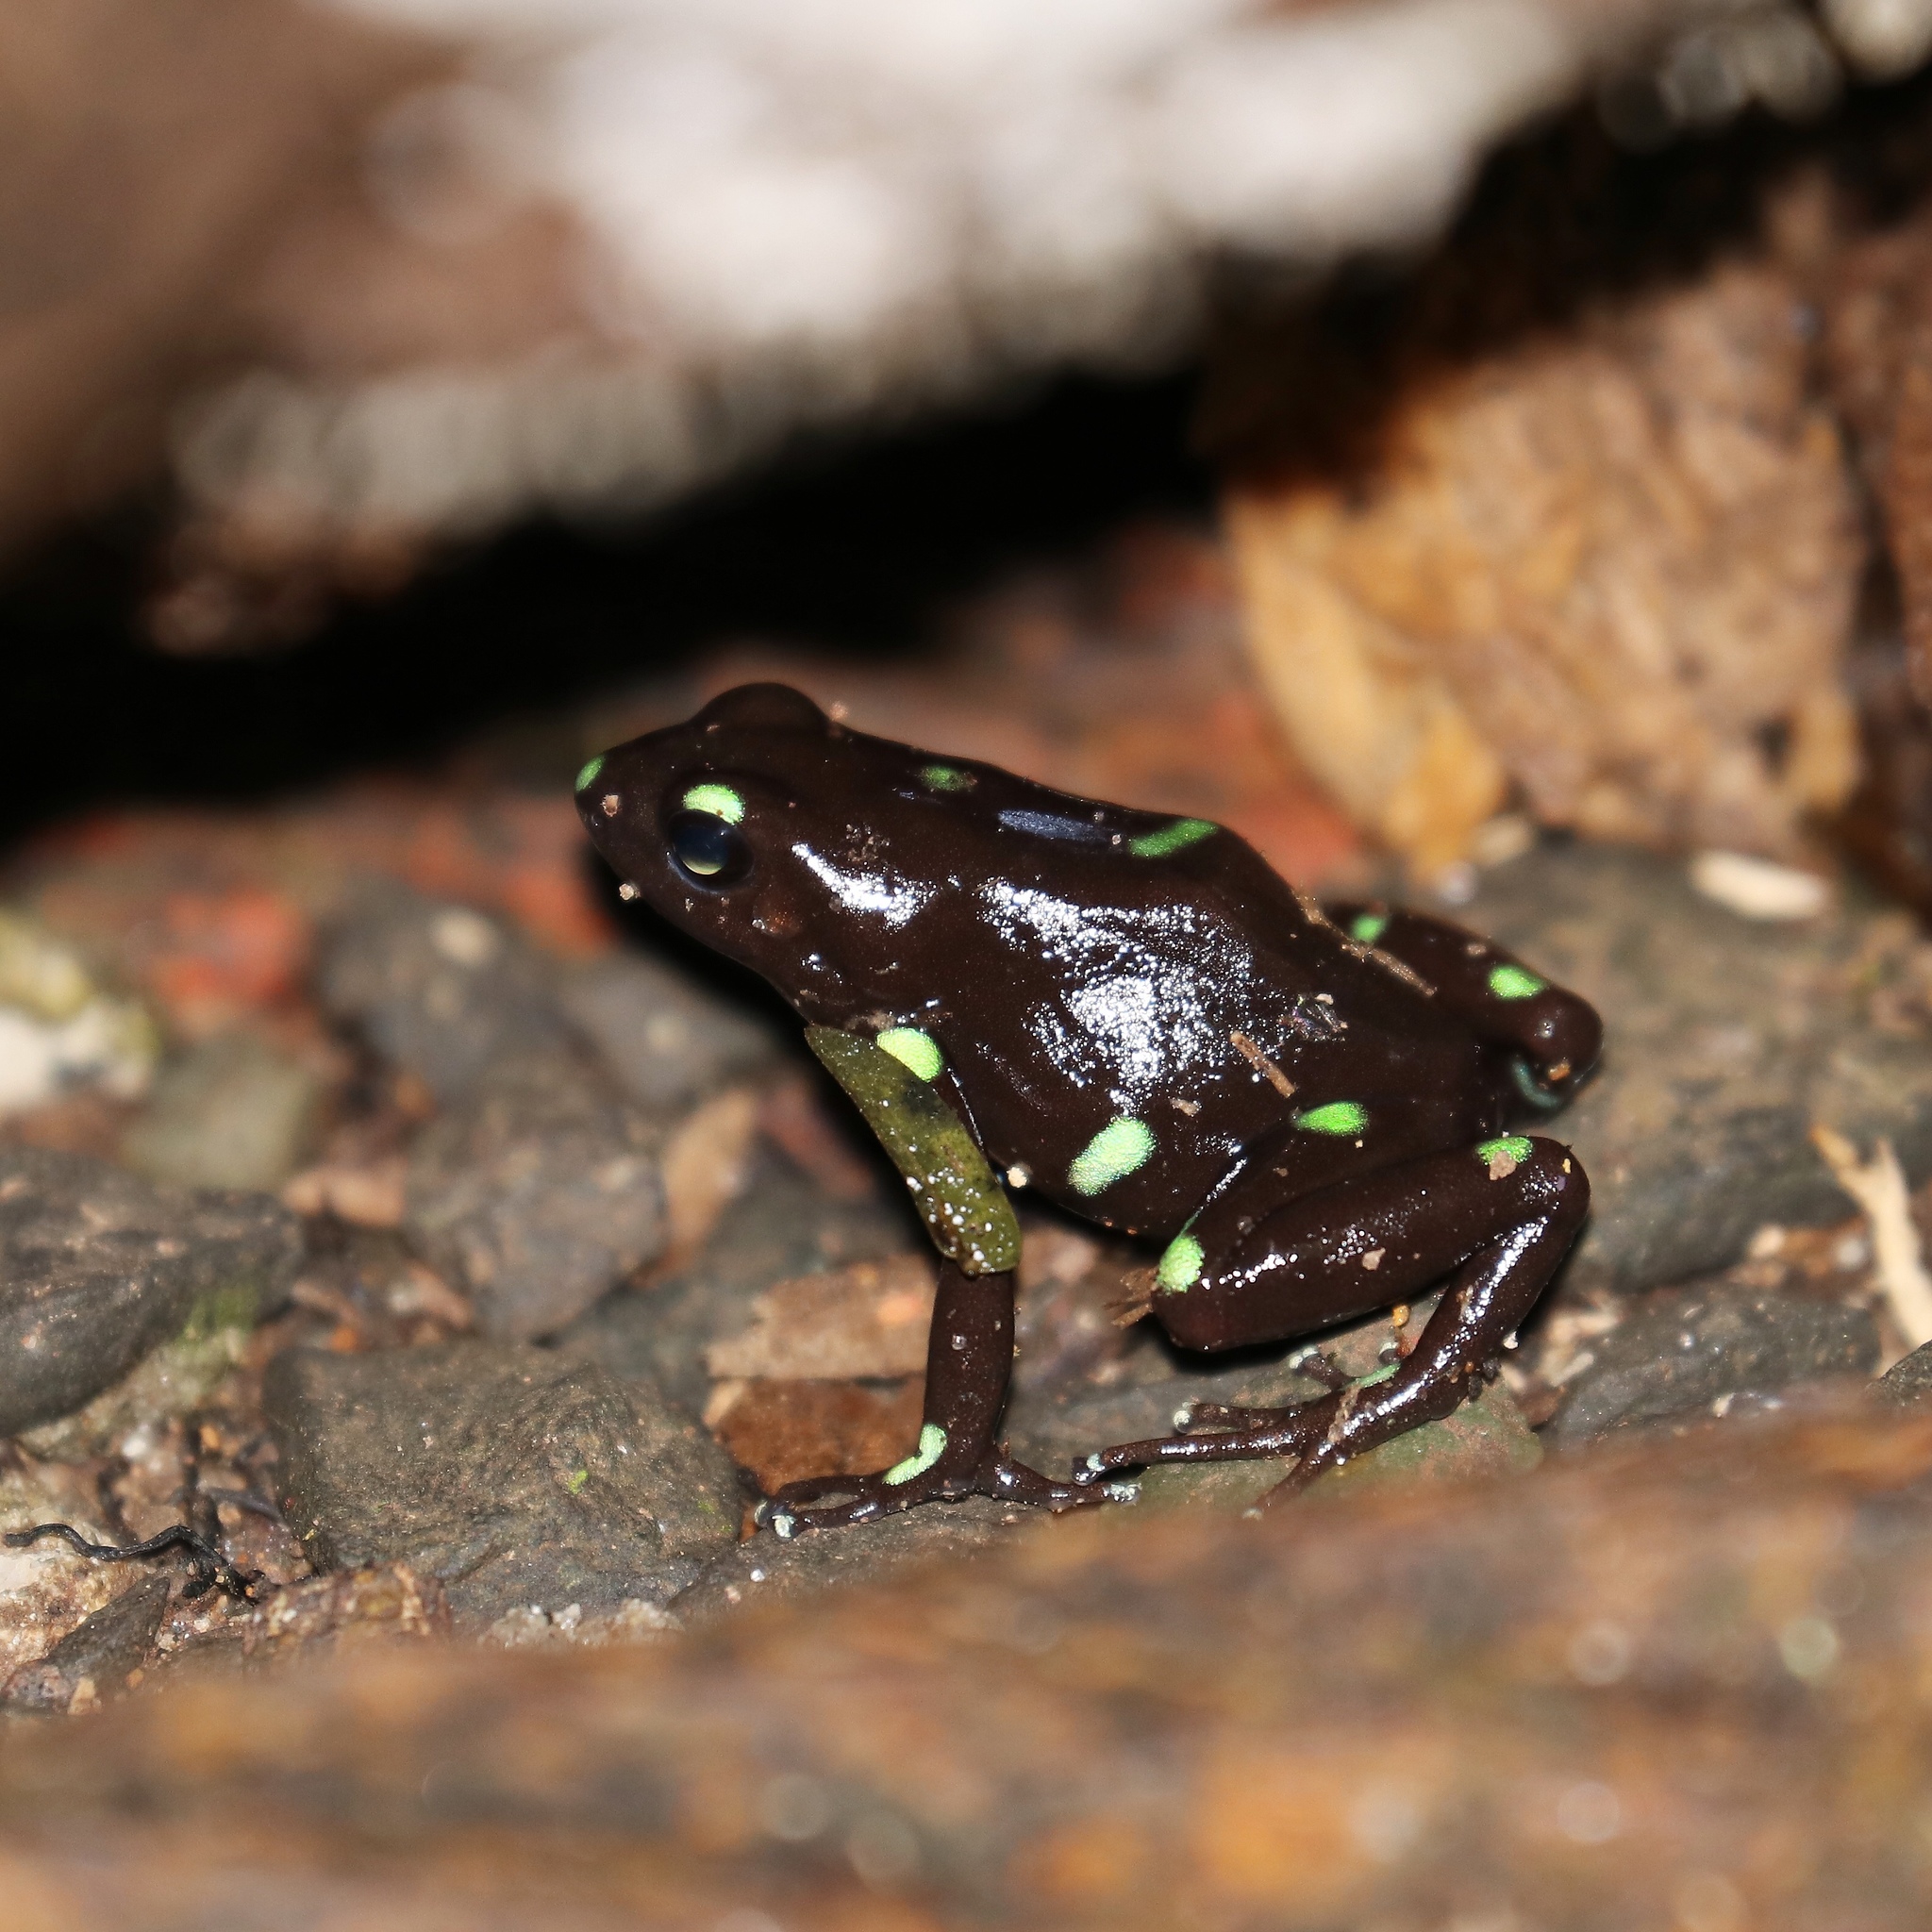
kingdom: Animalia
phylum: Chordata
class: Amphibia
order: Anura
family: Dendrobatidae
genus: Dendrobates
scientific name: Dendrobates auratus
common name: Green and black poison dart frog
